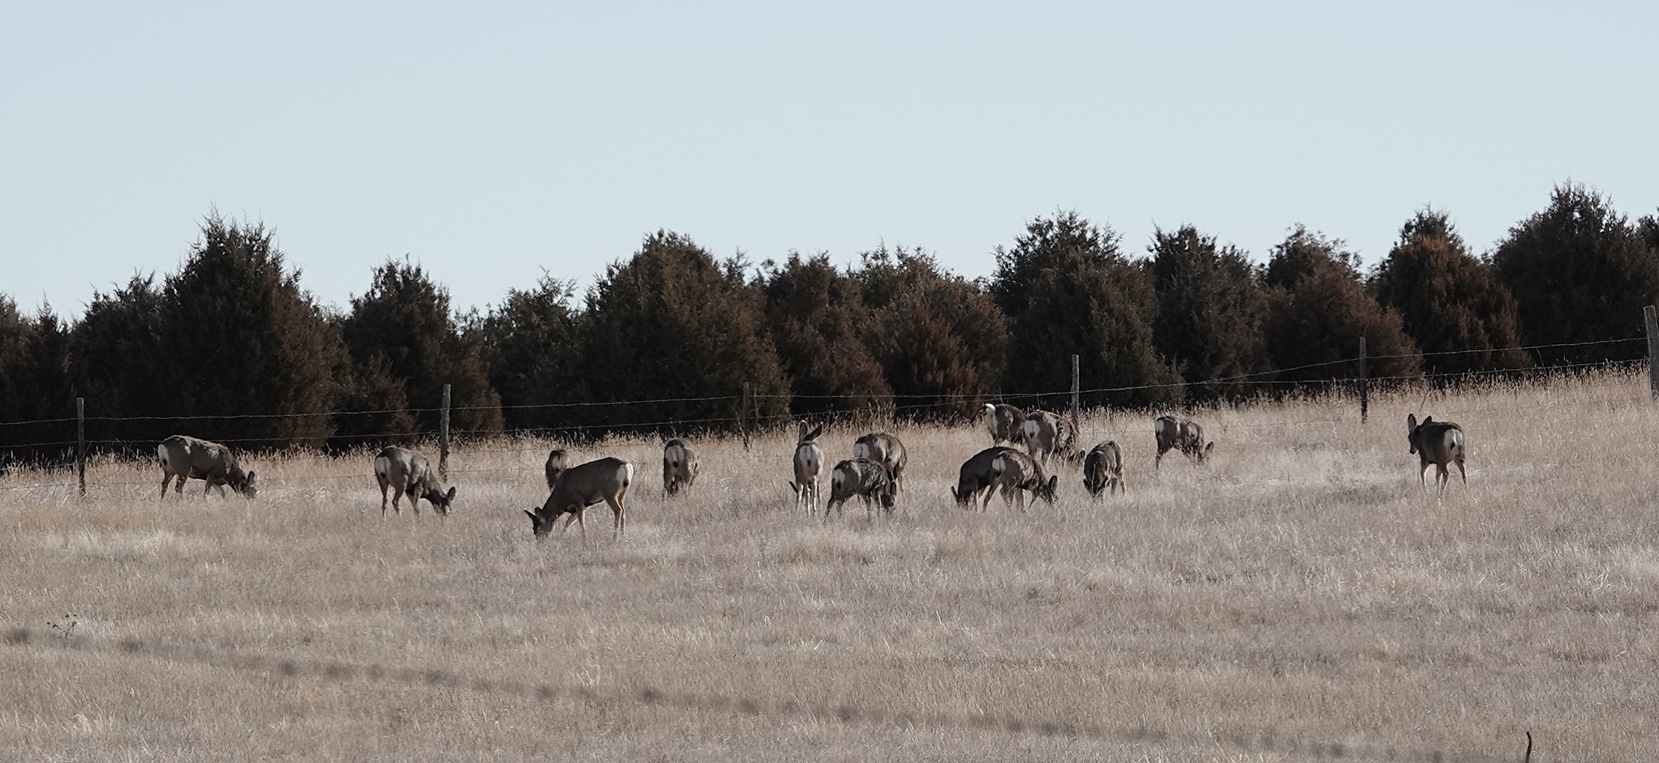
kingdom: Animalia
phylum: Chordata
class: Mammalia
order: Artiodactyla
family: Cervidae
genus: Odocoileus
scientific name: Odocoileus hemionus
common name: Mule deer
